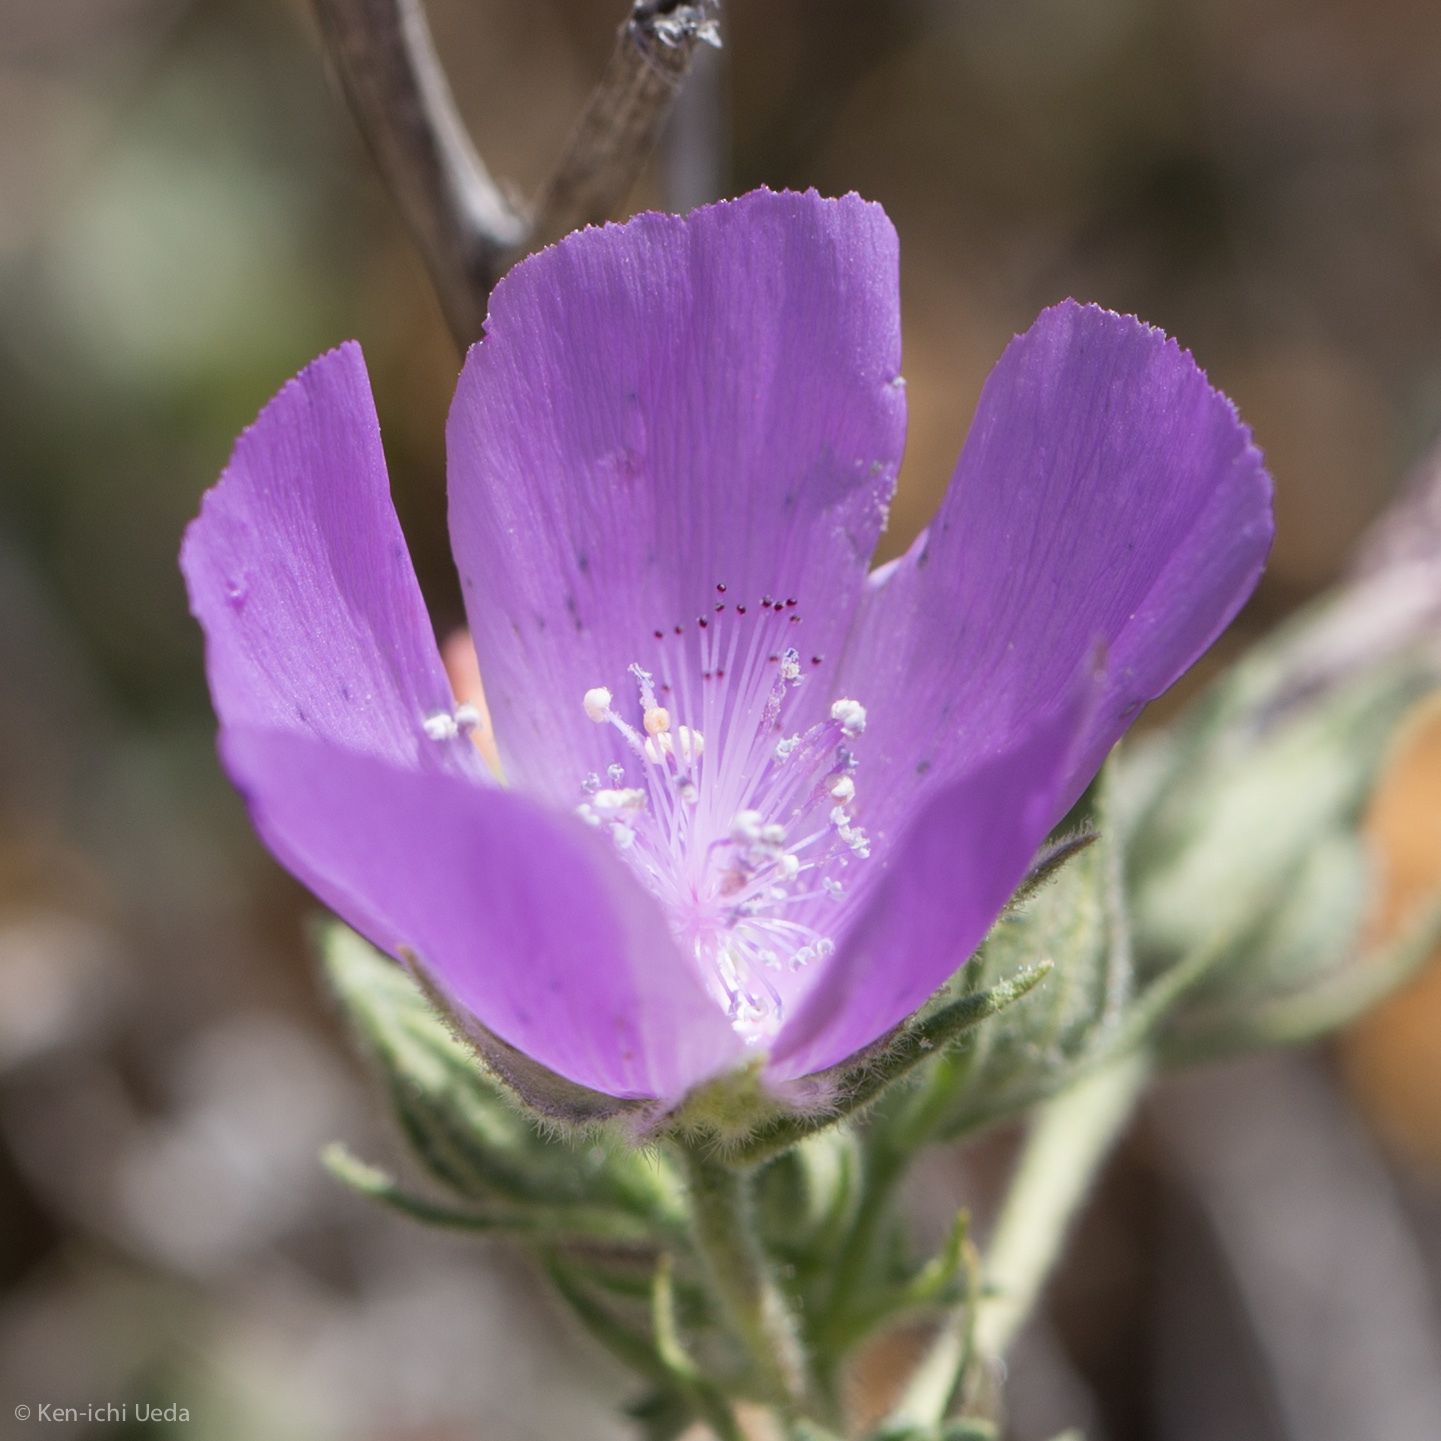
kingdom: Plantae
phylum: Tracheophyta
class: Magnoliopsida
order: Malvales
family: Malvaceae
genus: Eremalche
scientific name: Eremalche parryi
